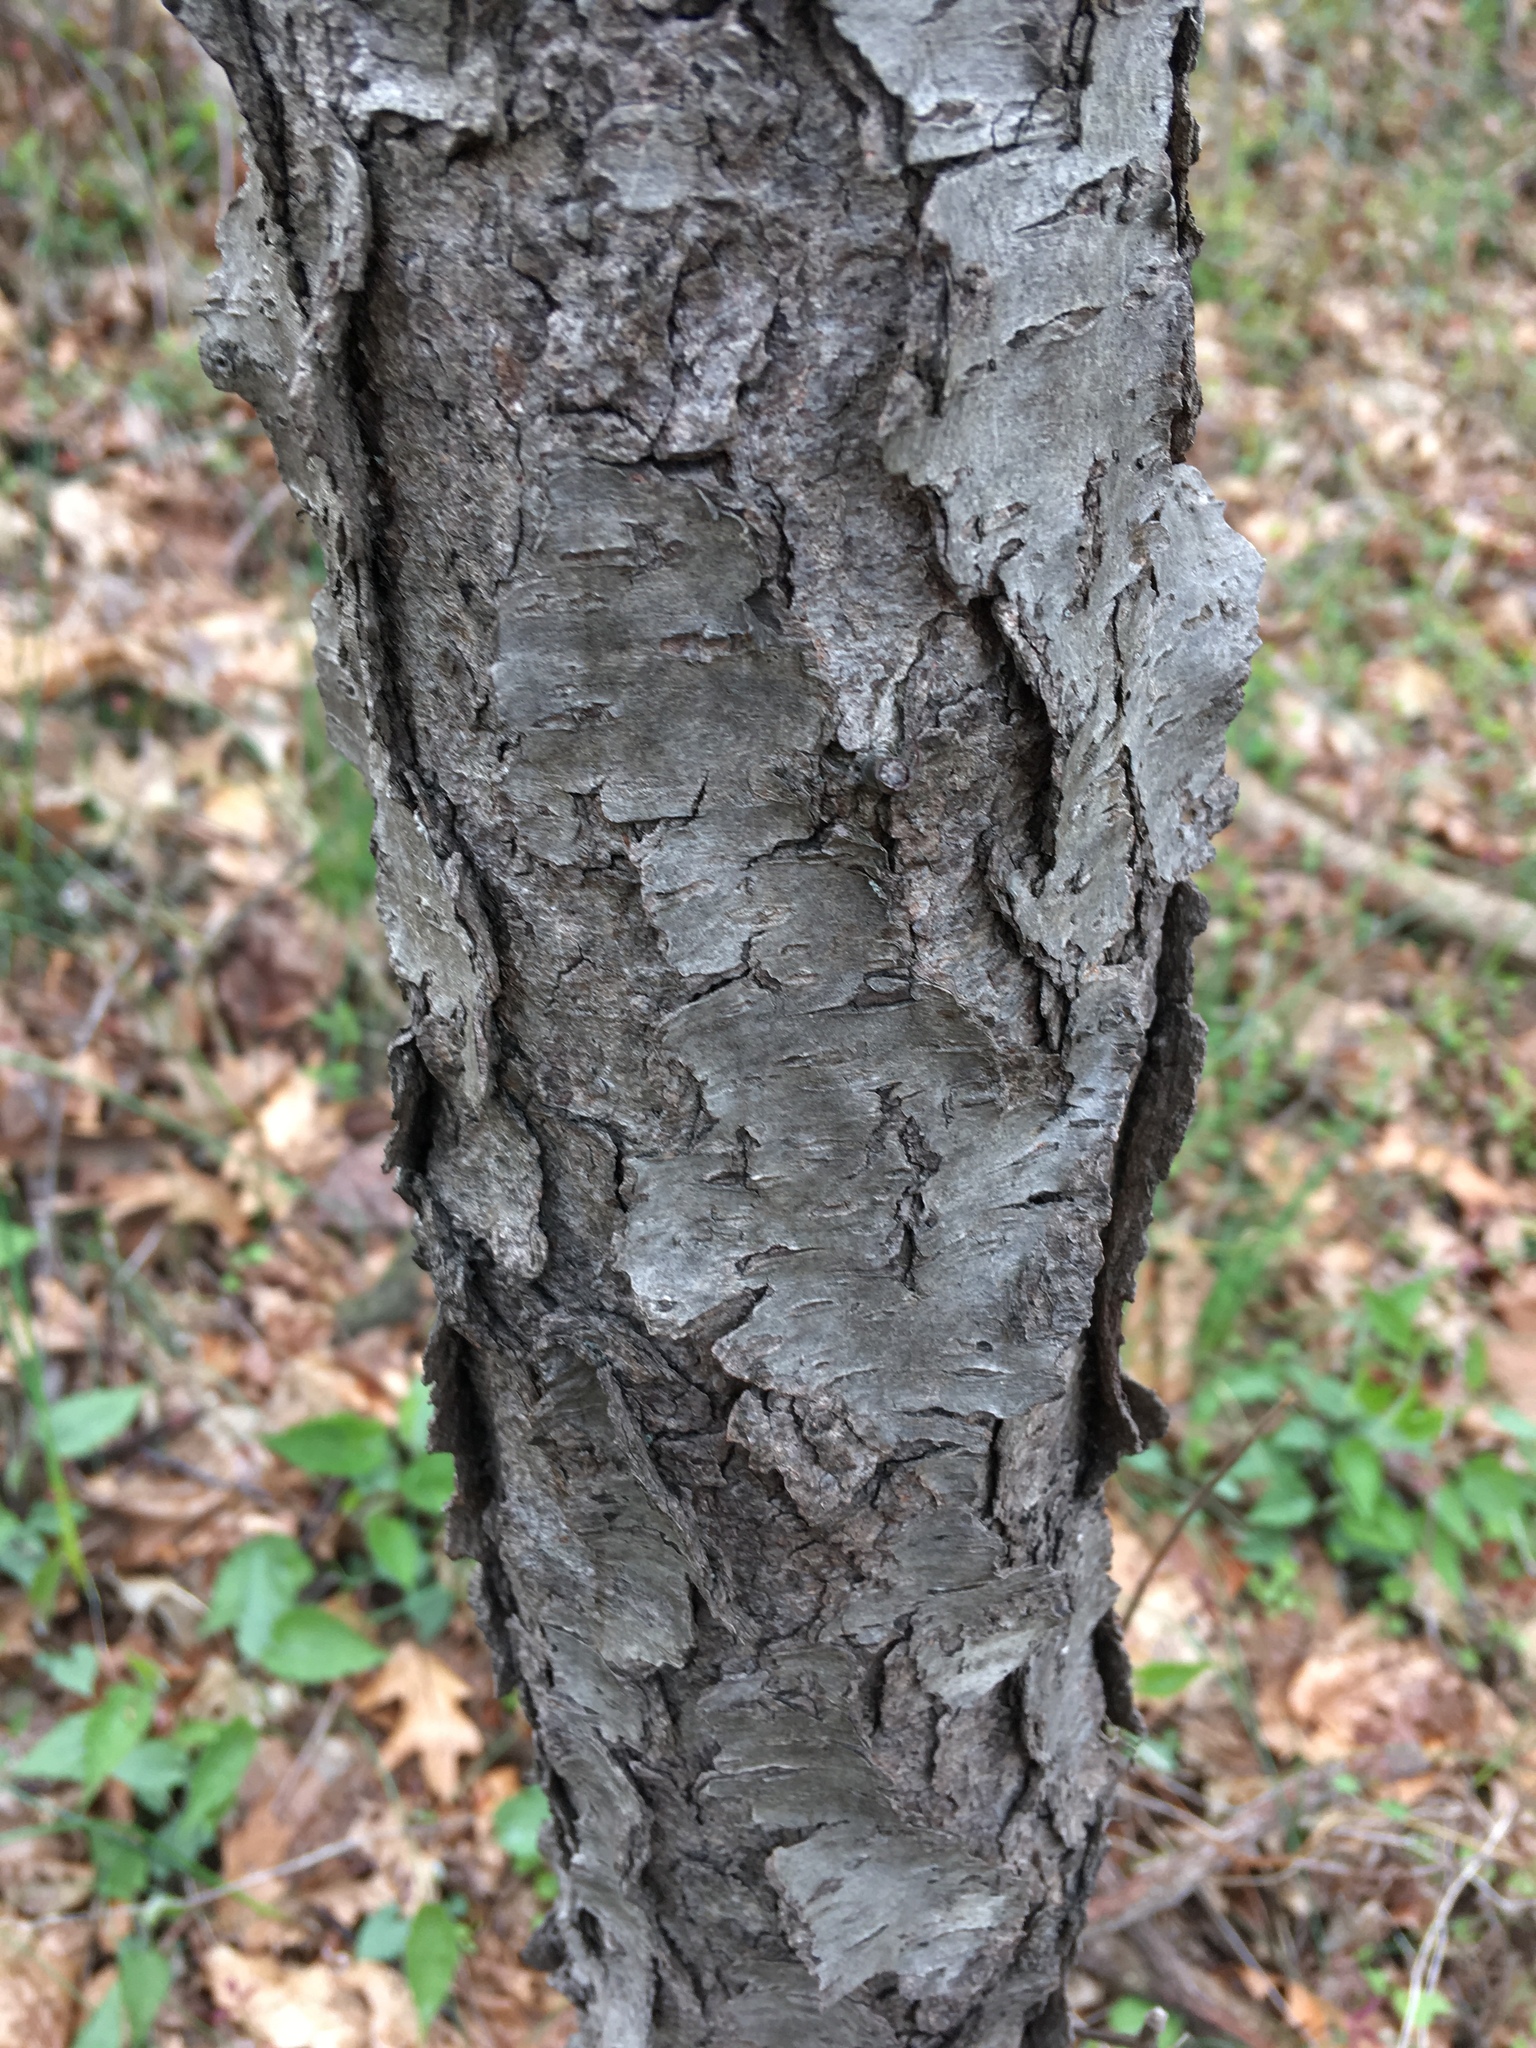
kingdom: Plantae
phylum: Tracheophyta
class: Magnoliopsida
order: Rosales
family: Rosaceae
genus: Prunus
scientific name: Prunus serotina
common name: Black cherry
